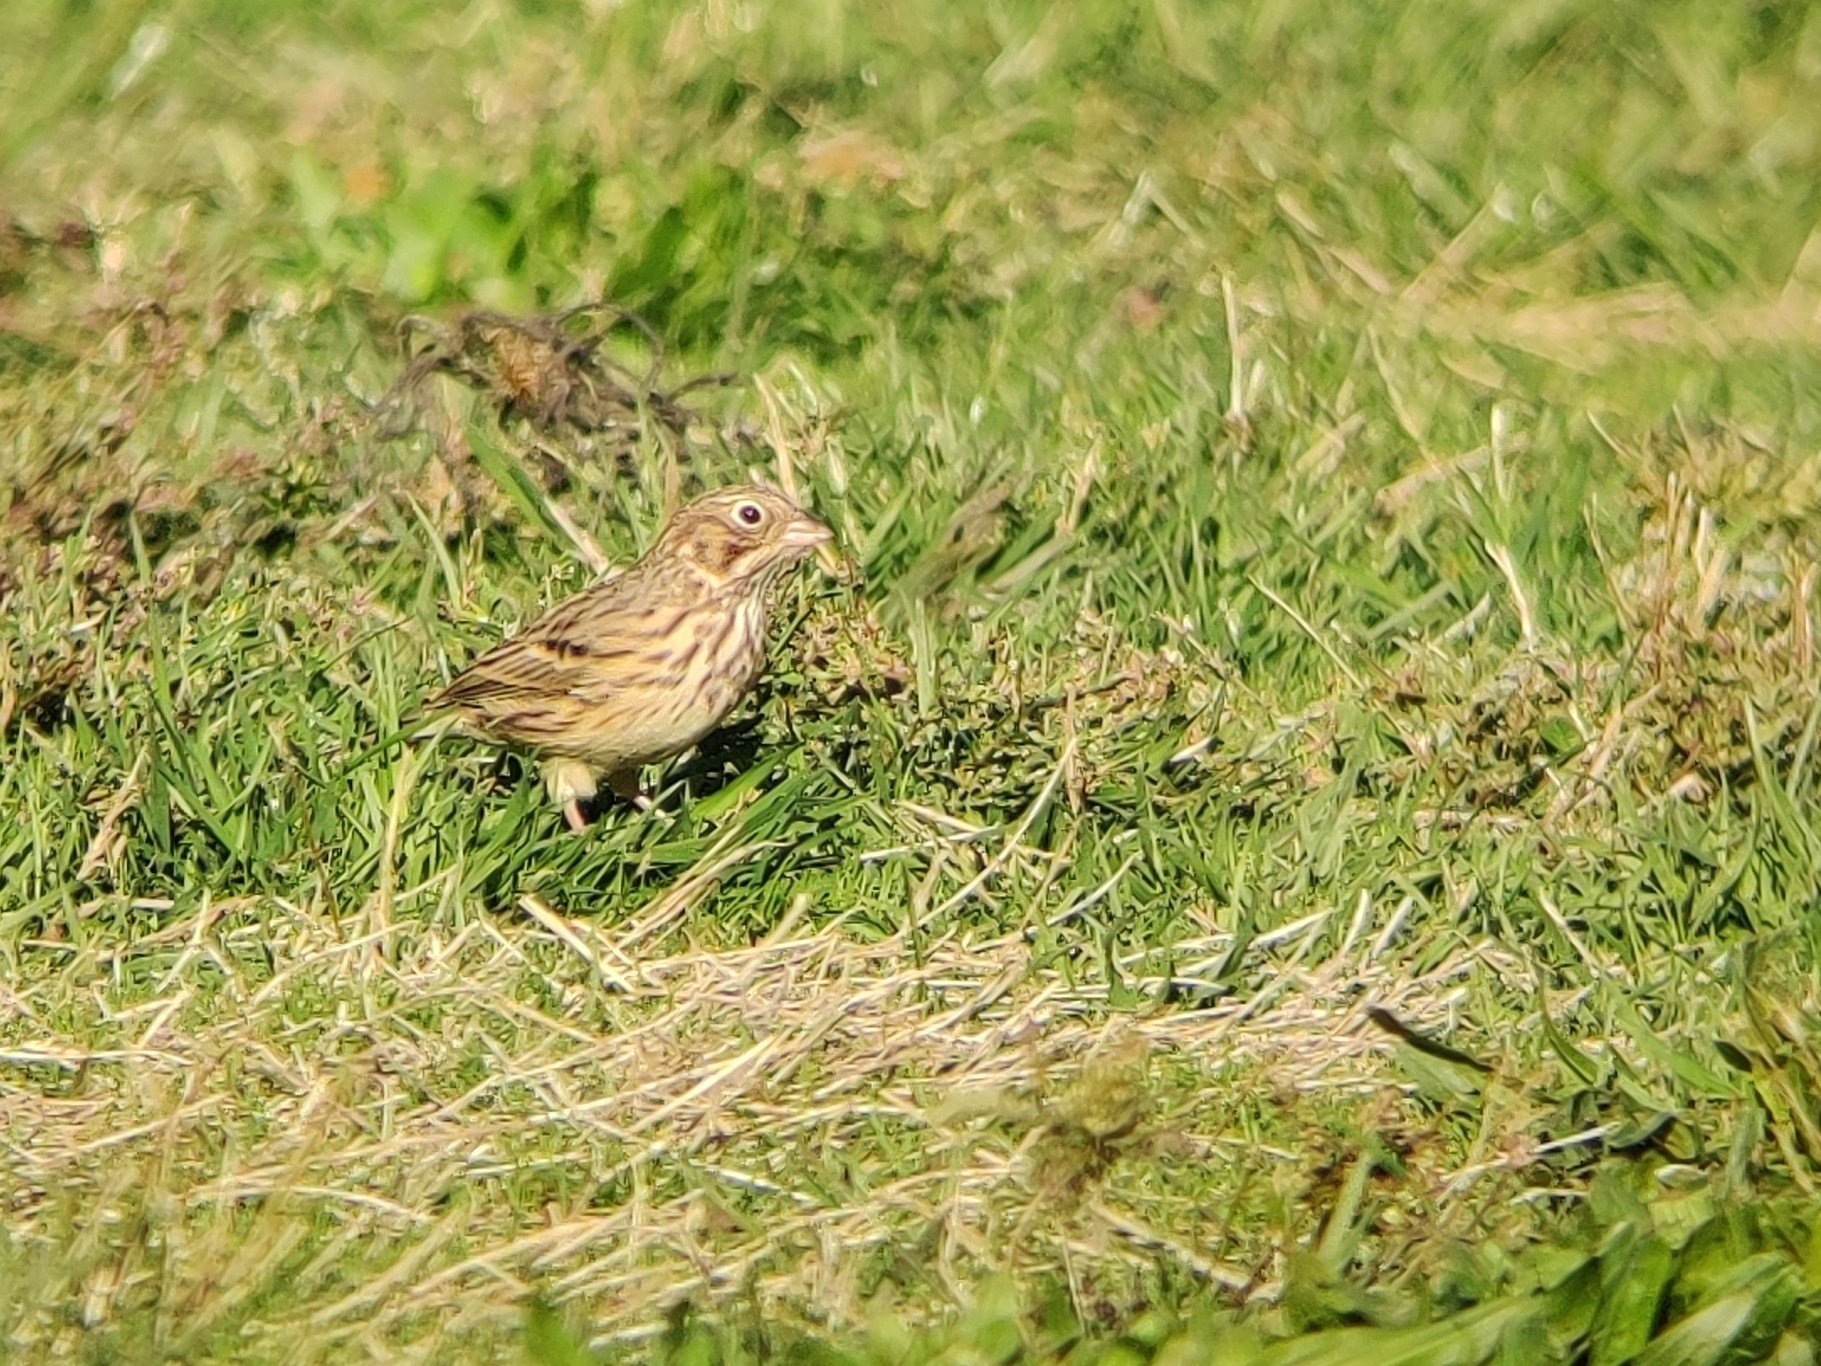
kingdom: Animalia
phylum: Chordata
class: Aves
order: Passeriformes
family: Passerellidae
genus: Pooecetes
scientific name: Pooecetes gramineus
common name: Vesper sparrow
